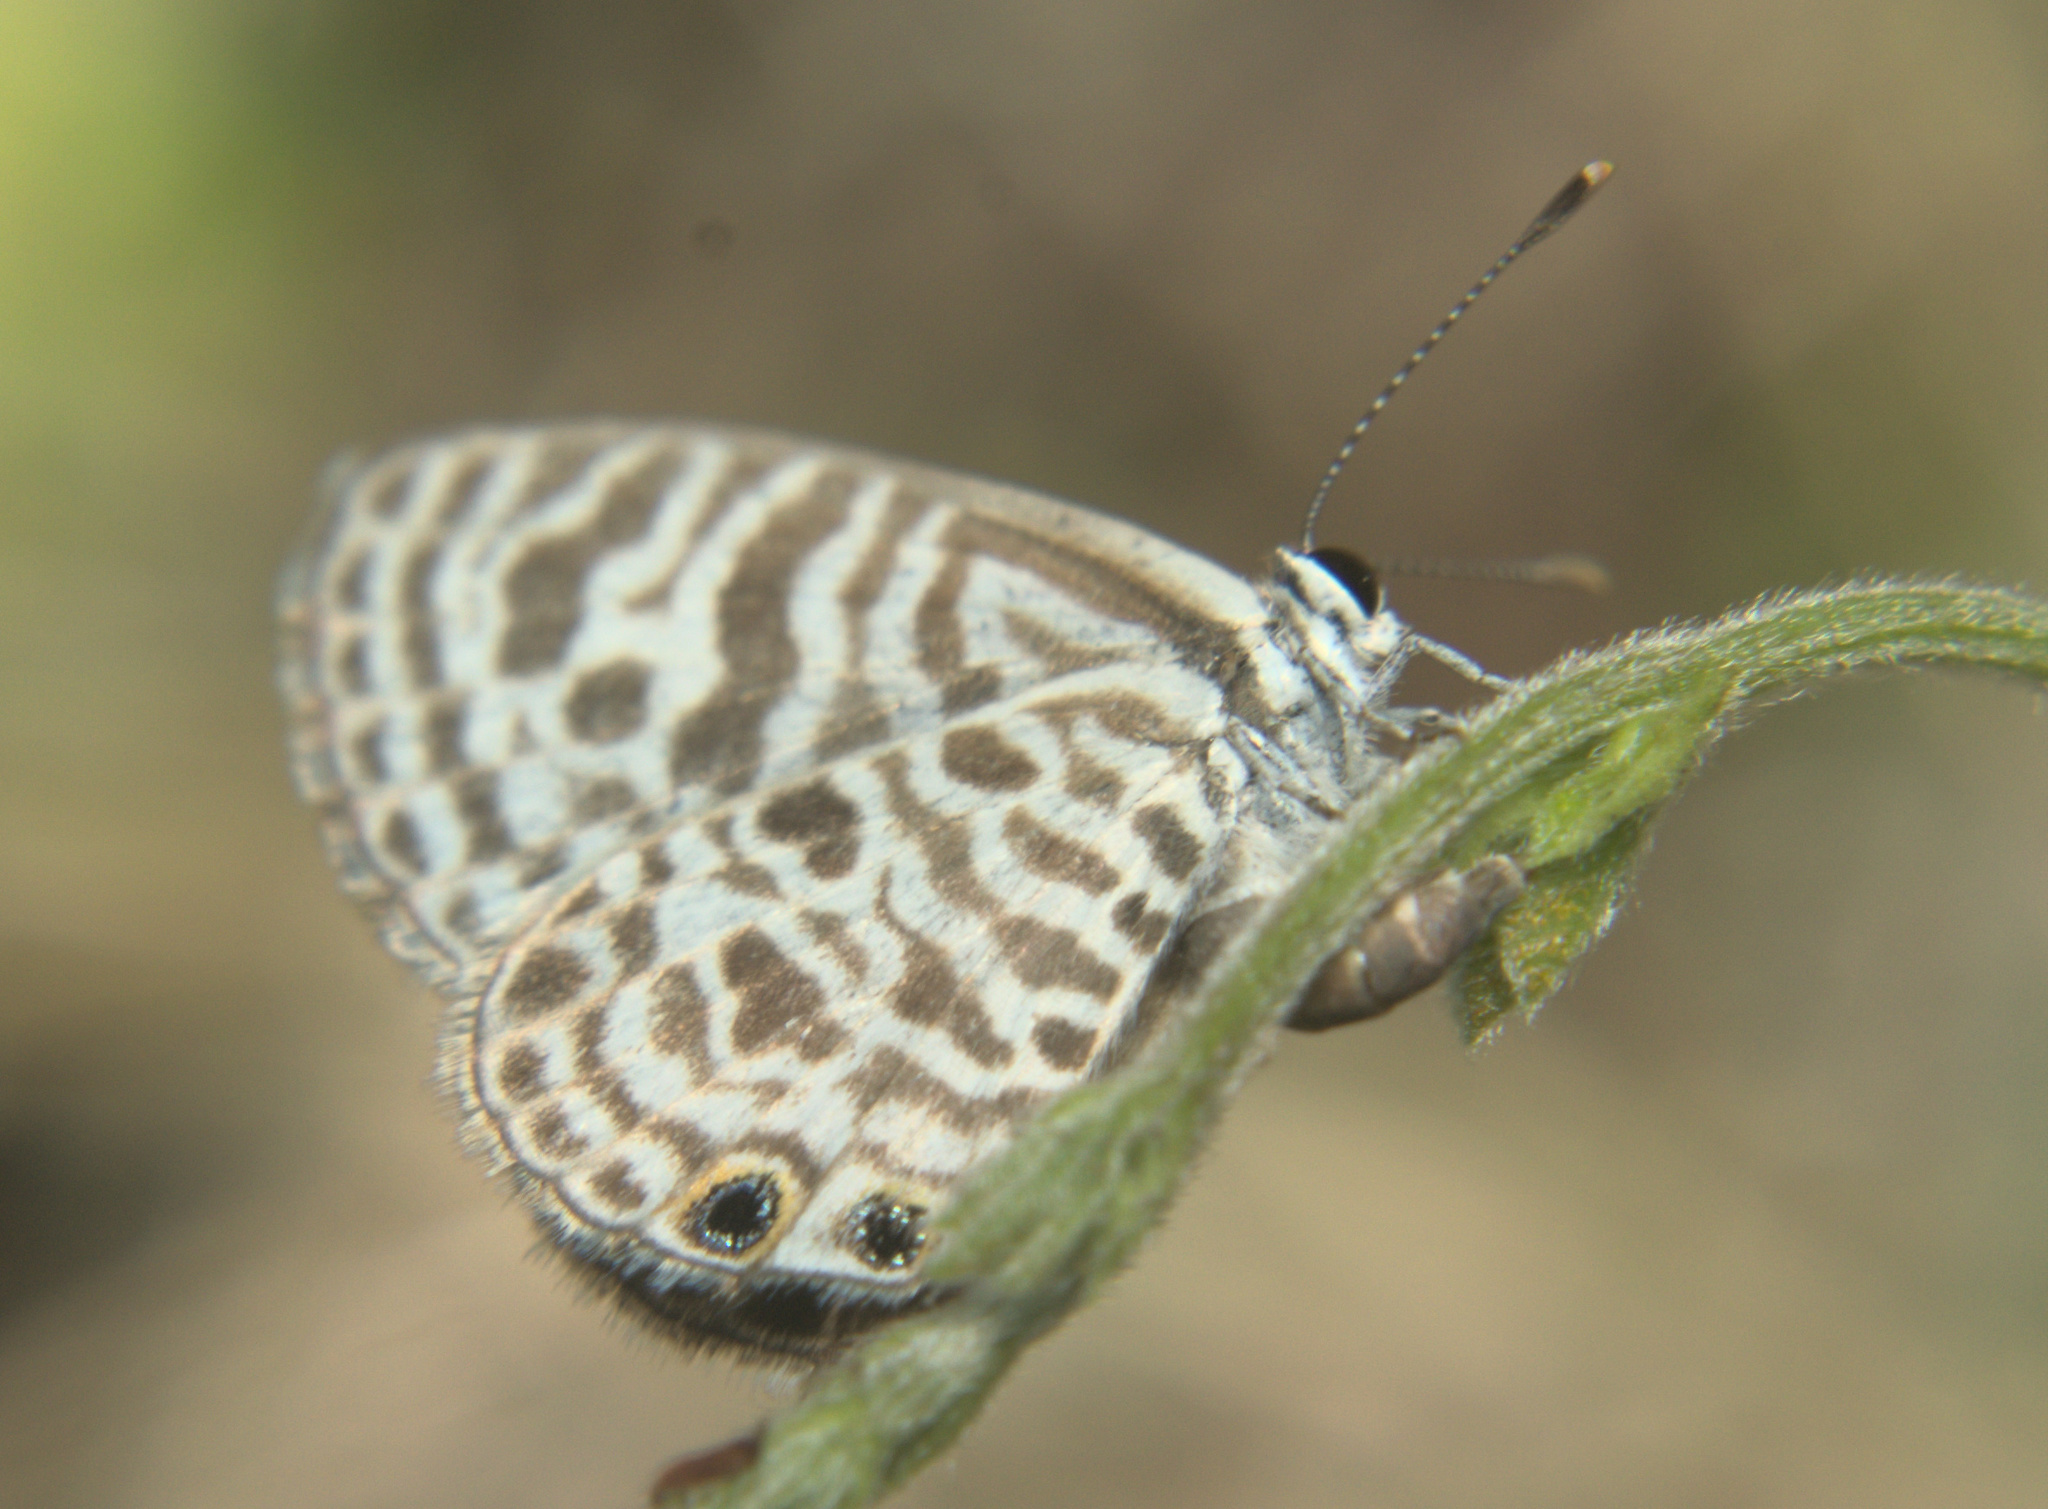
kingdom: Animalia
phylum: Arthropoda
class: Insecta
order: Lepidoptera
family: Lycaenidae
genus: Leptotes
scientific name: Leptotes plinius
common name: Zebra blue
